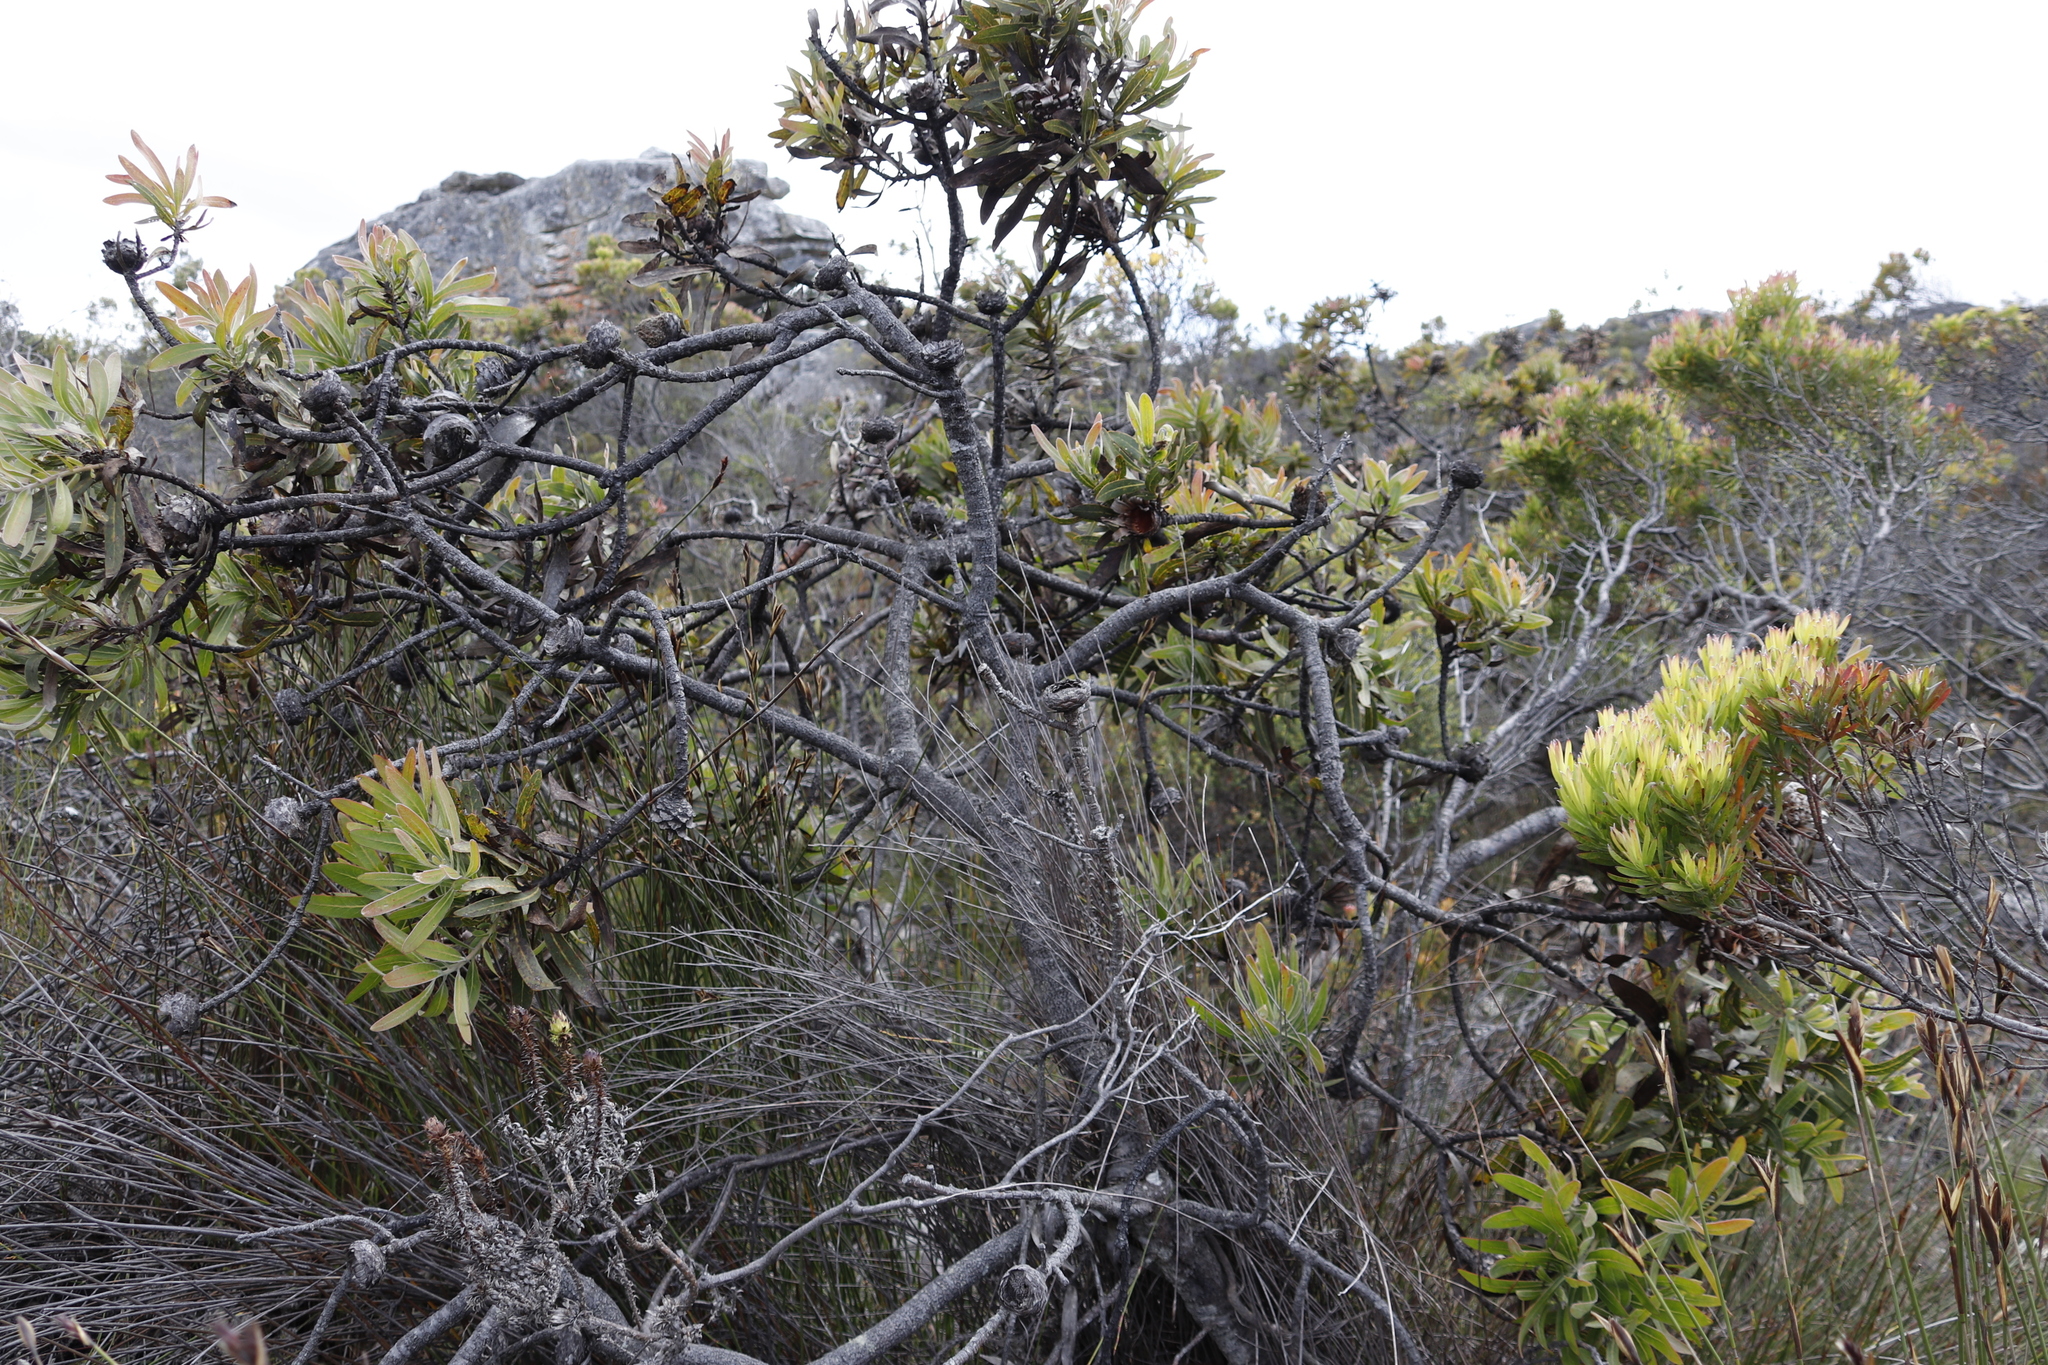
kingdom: Plantae
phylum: Tracheophyta
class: Magnoliopsida
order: Proteales
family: Proteaceae
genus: Protea
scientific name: Protea neriifolia
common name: Blue sugarbush
